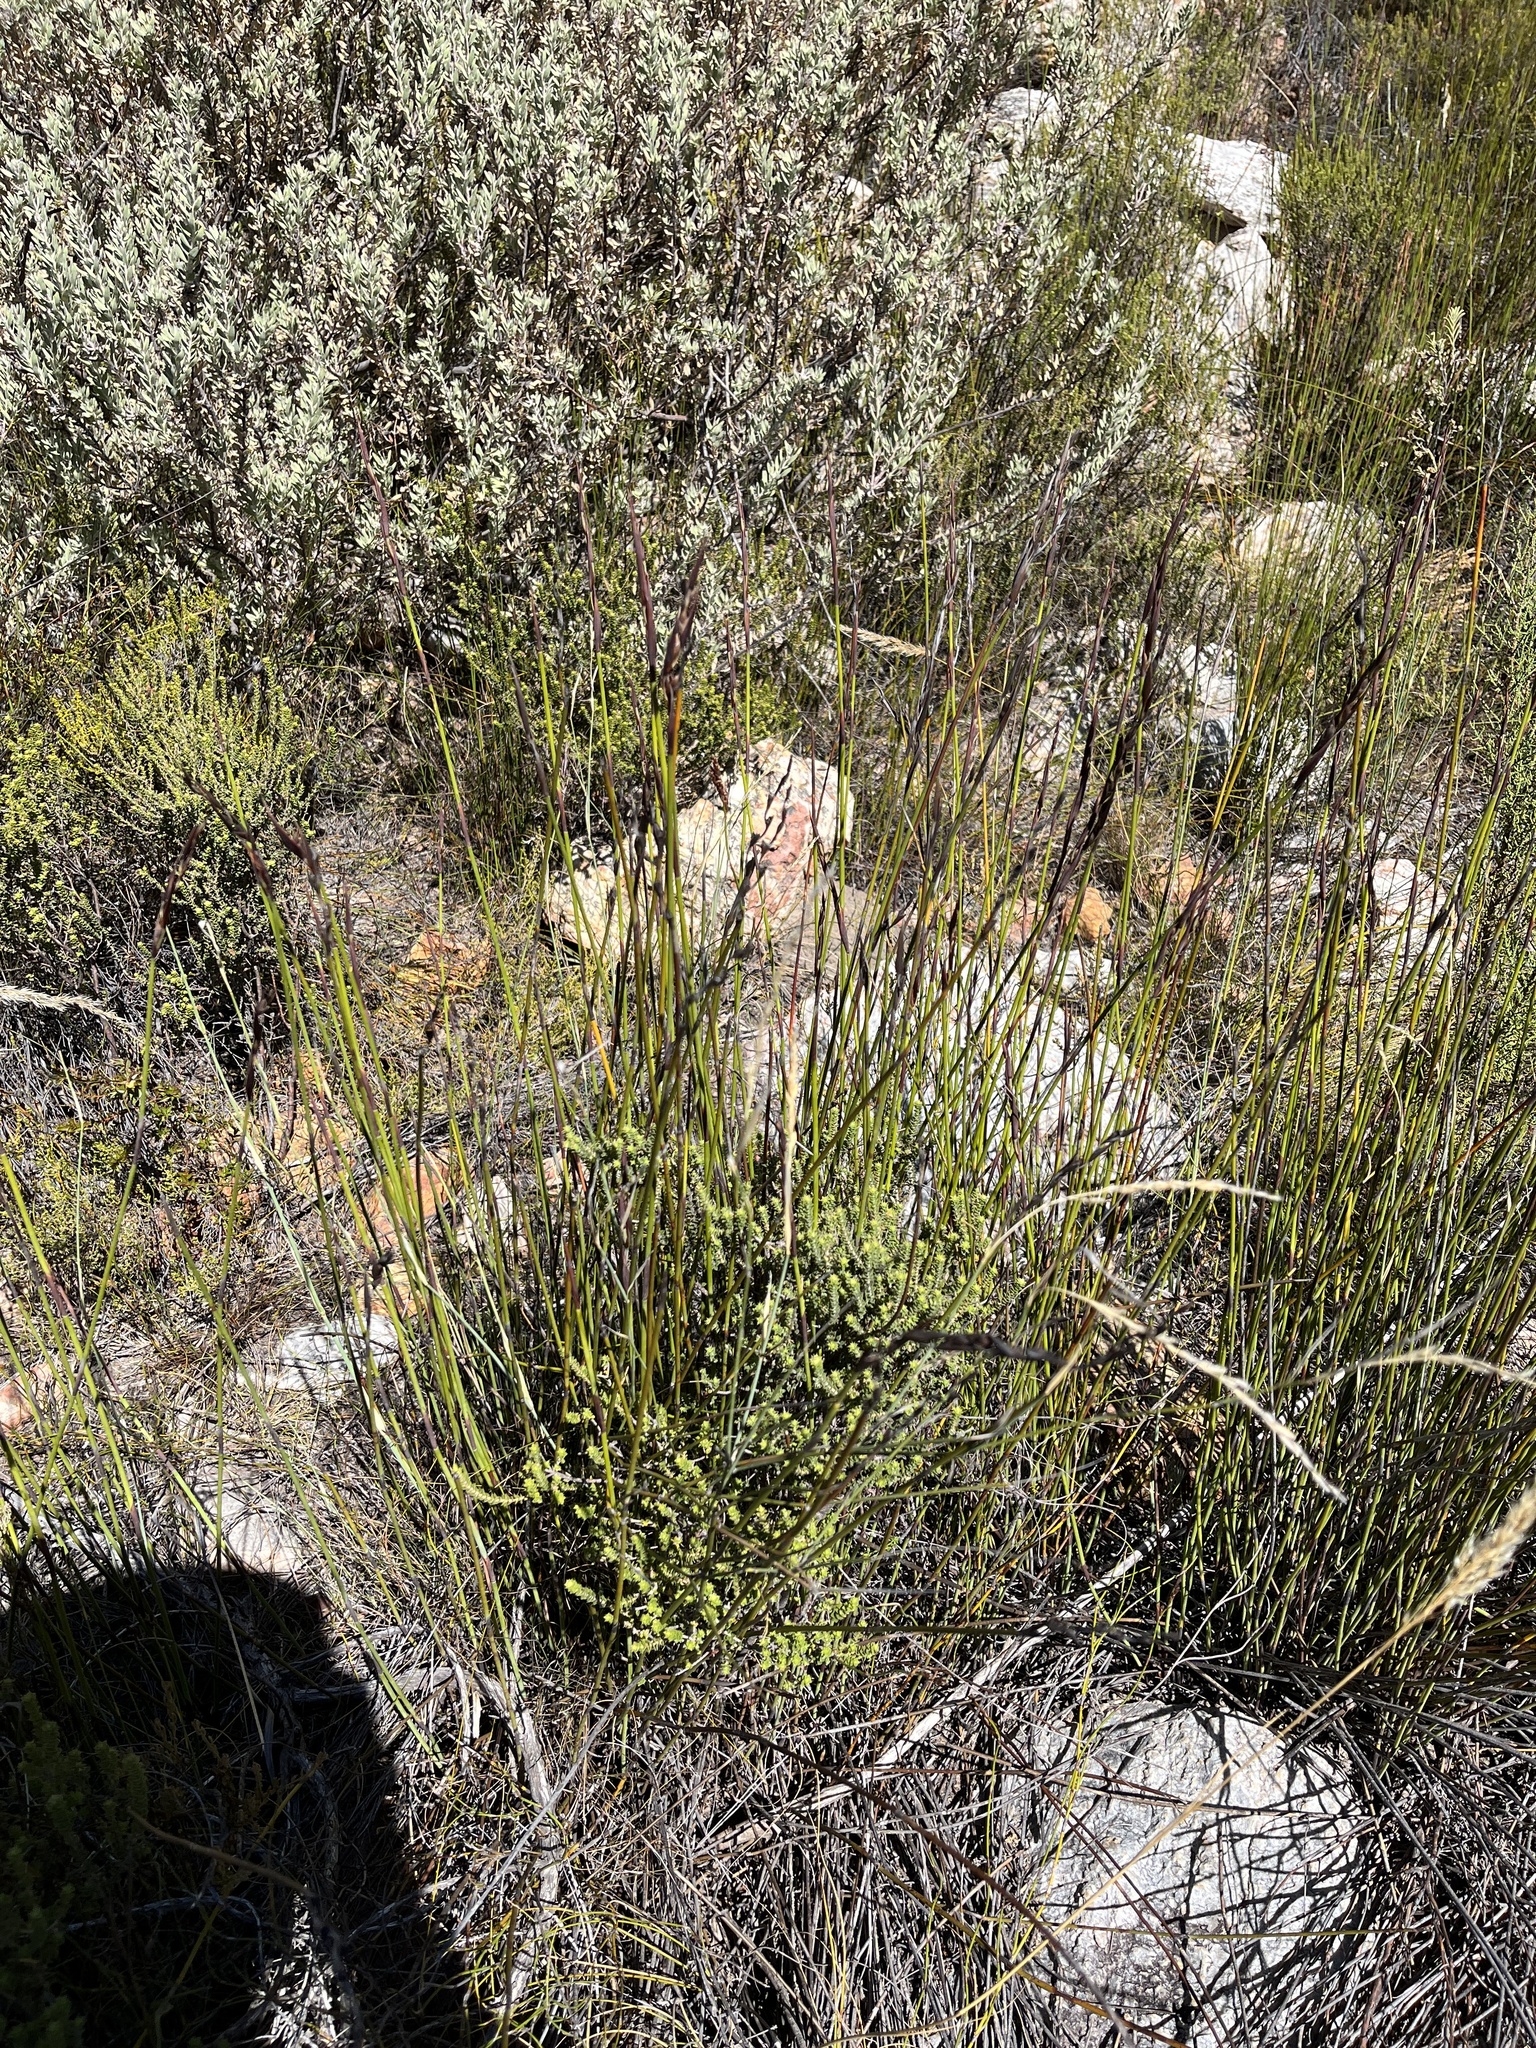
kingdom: Plantae
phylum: Tracheophyta
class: Liliopsida
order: Poales
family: Restionaceae
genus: Cannomois
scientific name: Cannomois scirpoides
